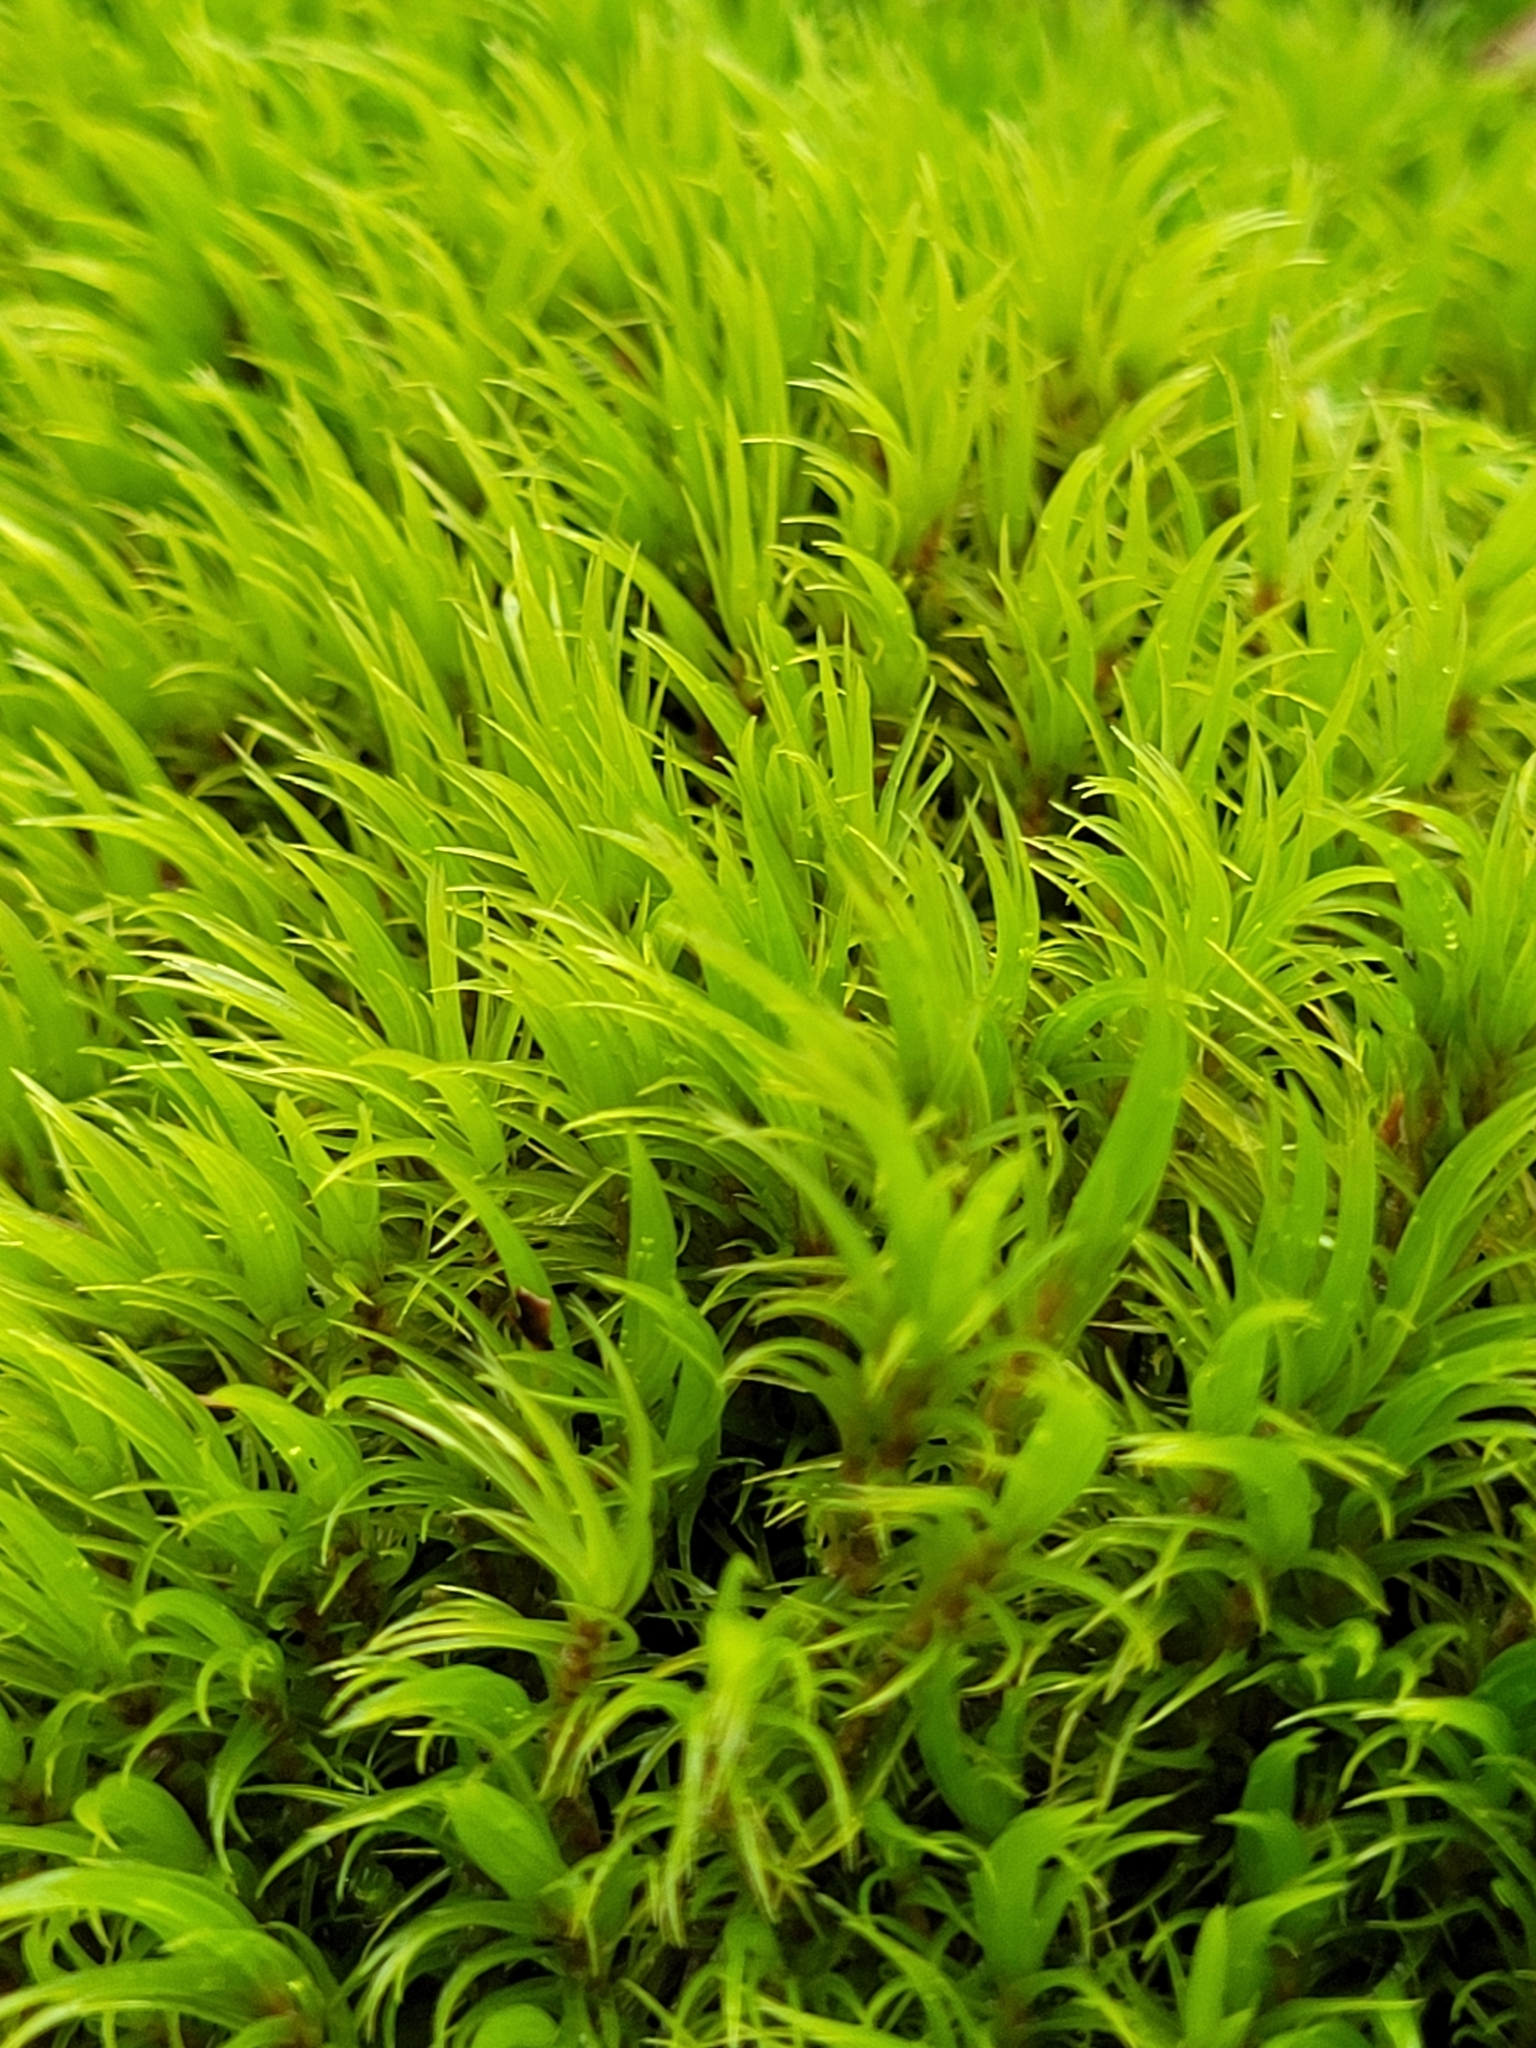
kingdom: Plantae
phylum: Bryophyta
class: Bryopsida
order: Dicranales
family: Dicranaceae
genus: Dicranum
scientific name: Dicranum scoparium
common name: Broom fork-moss
